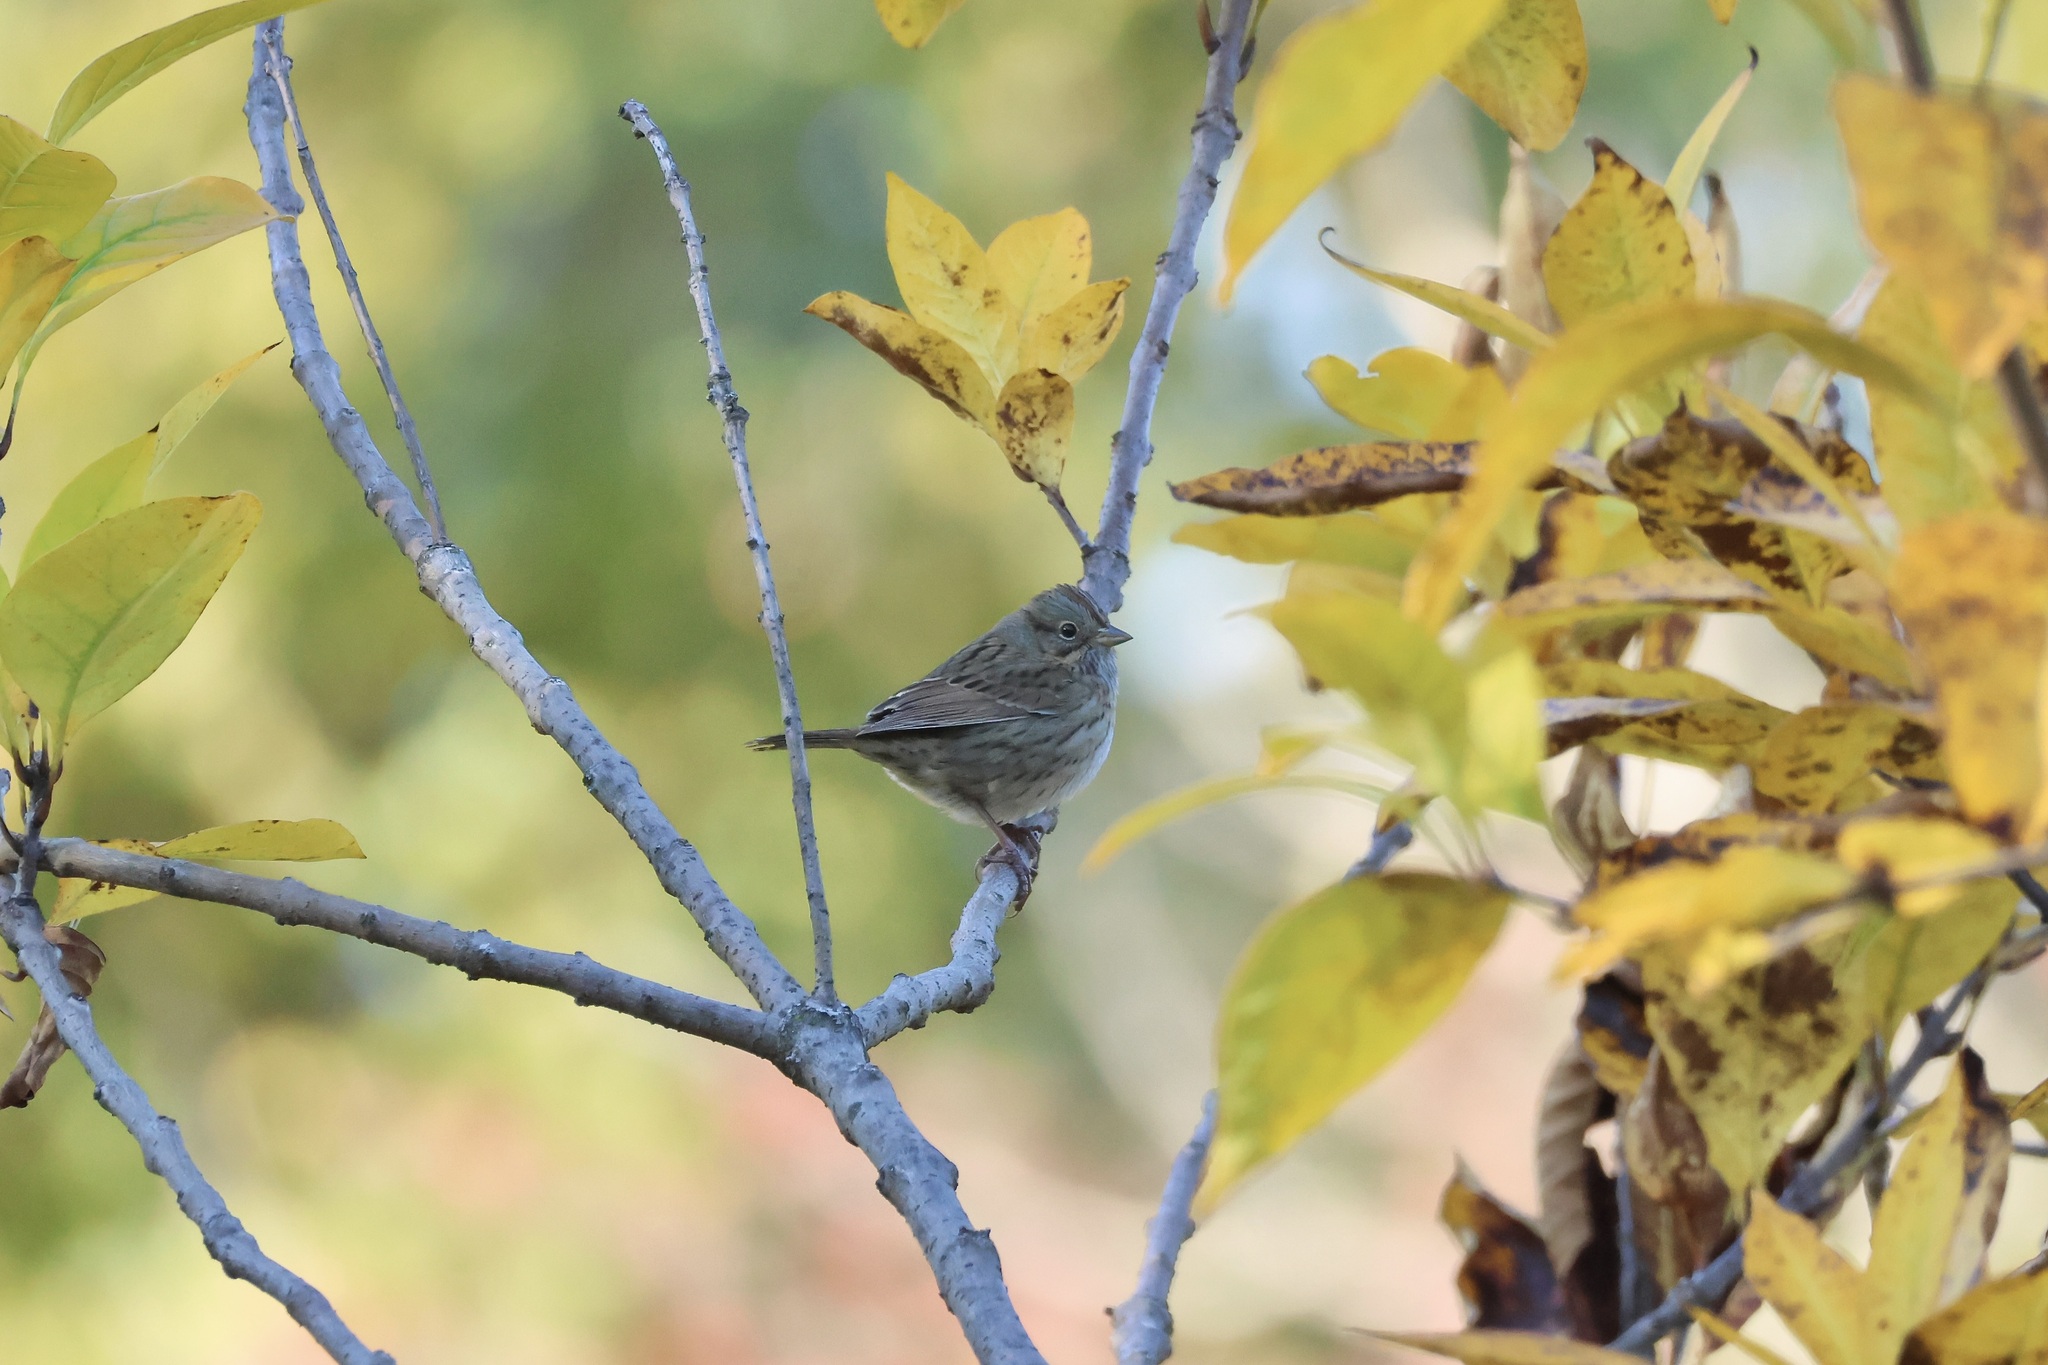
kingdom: Animalia
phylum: Chordata
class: Aves
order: Passeriformes
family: Passerellidae
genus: Melospiza
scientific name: Melospiza lincolnii
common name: Lincoln's sparrow
